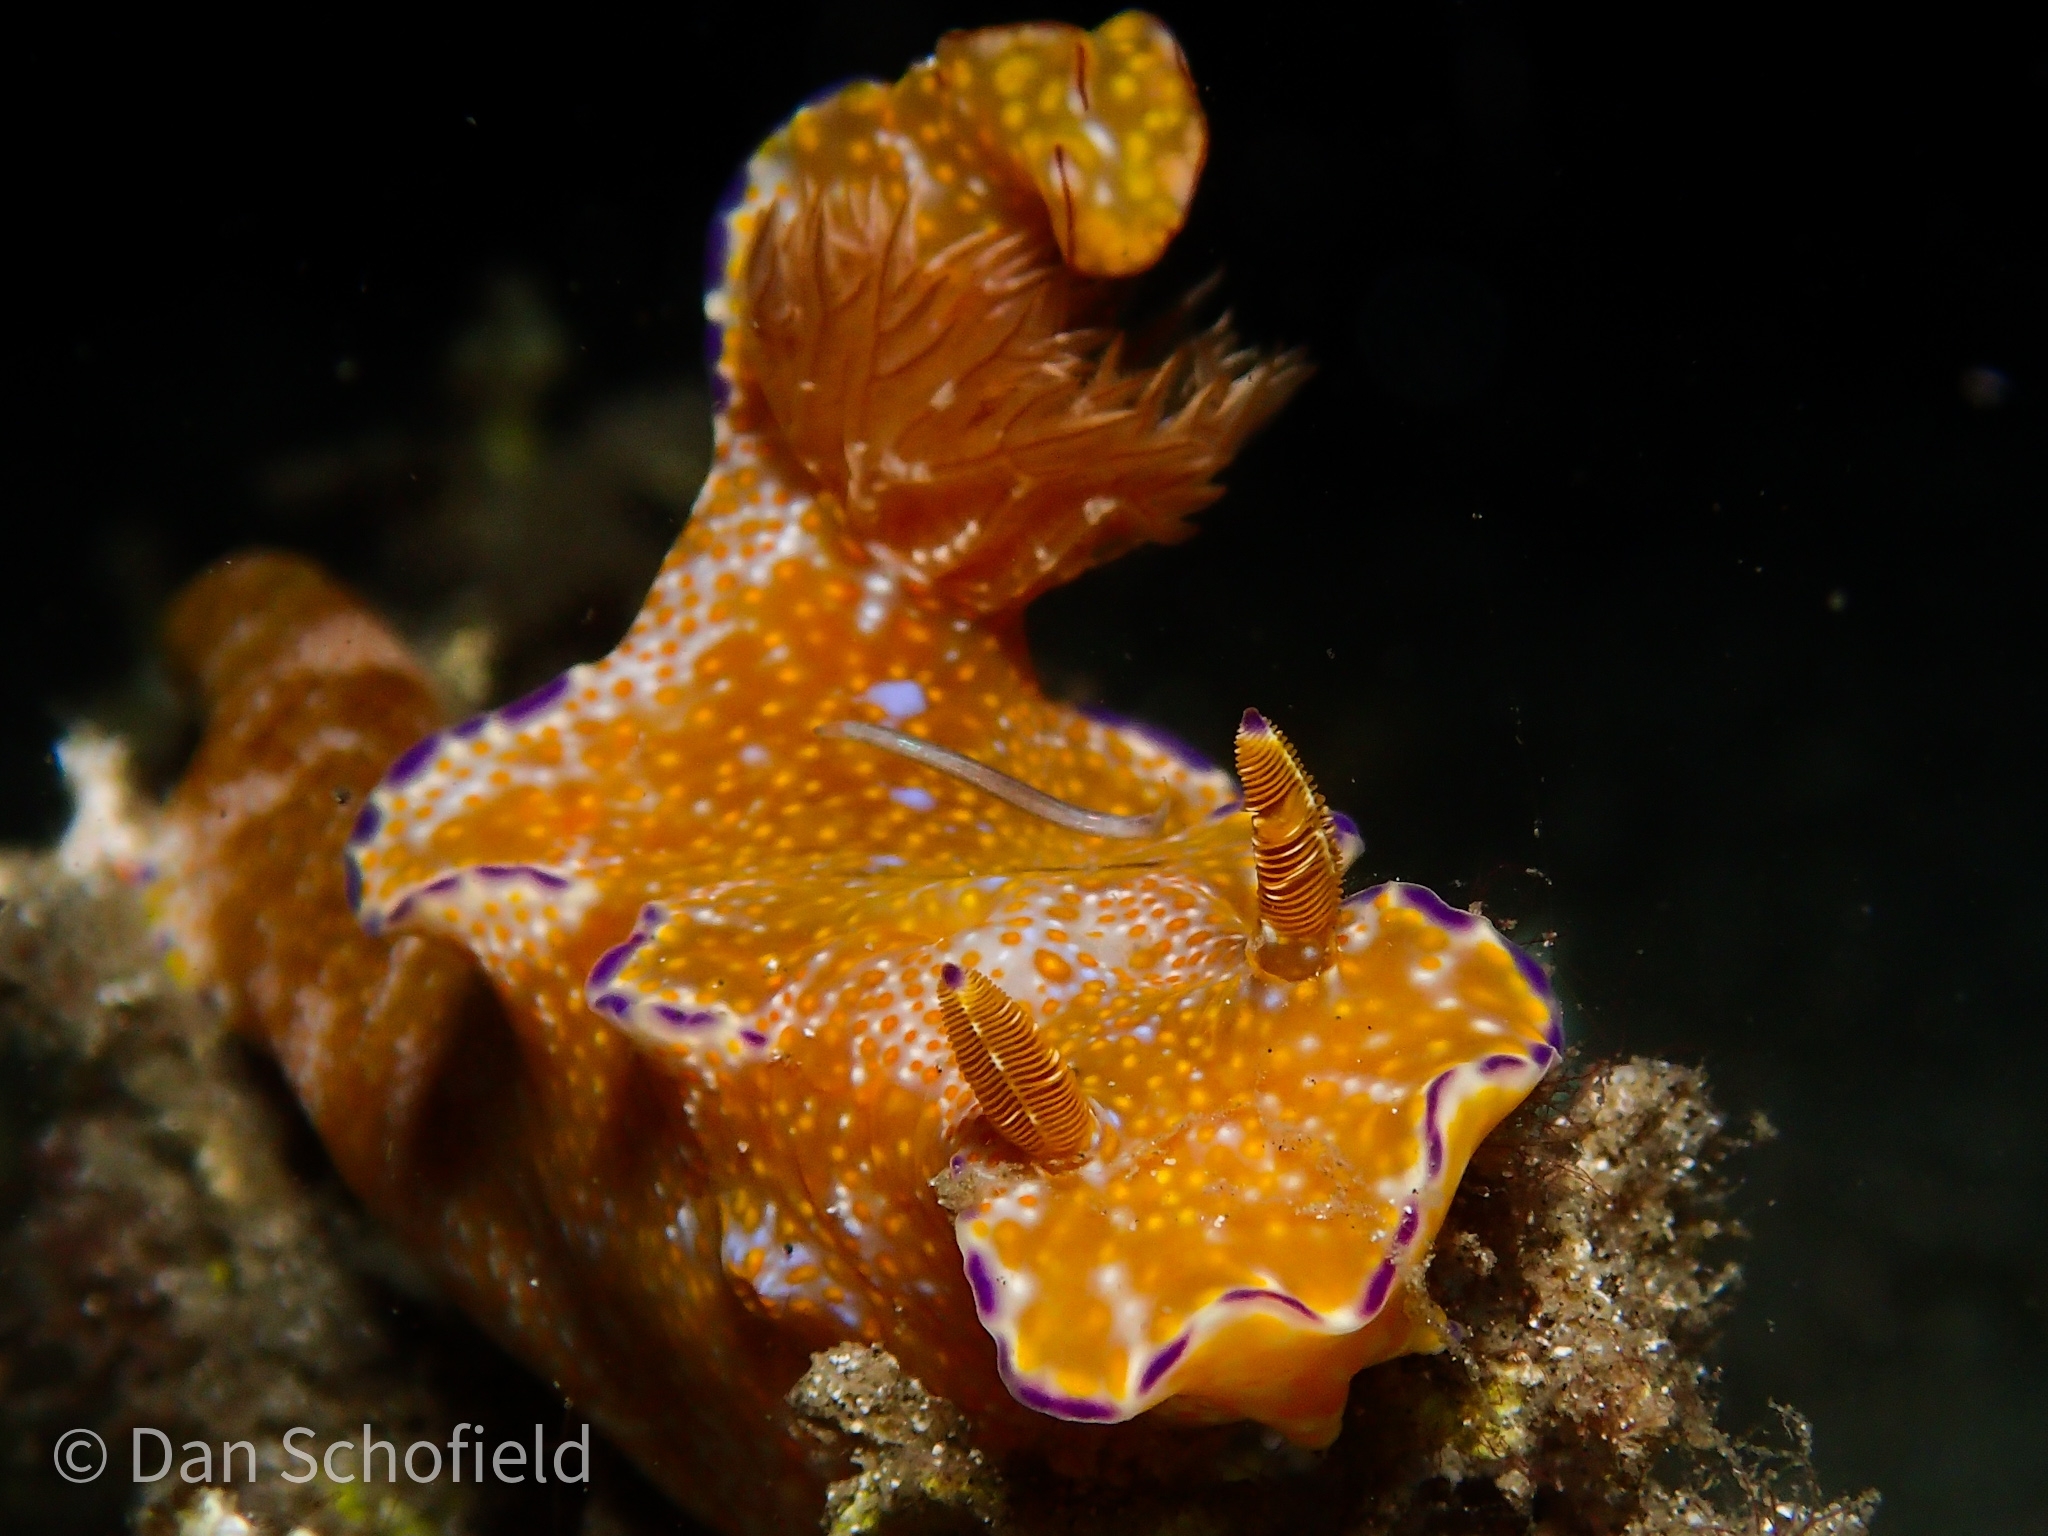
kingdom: Animalia
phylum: Mollusca
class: Gastropoda
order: Nudibranchia
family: Chromodorididae
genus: Ceratosoma
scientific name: Ceratosoma tenue
